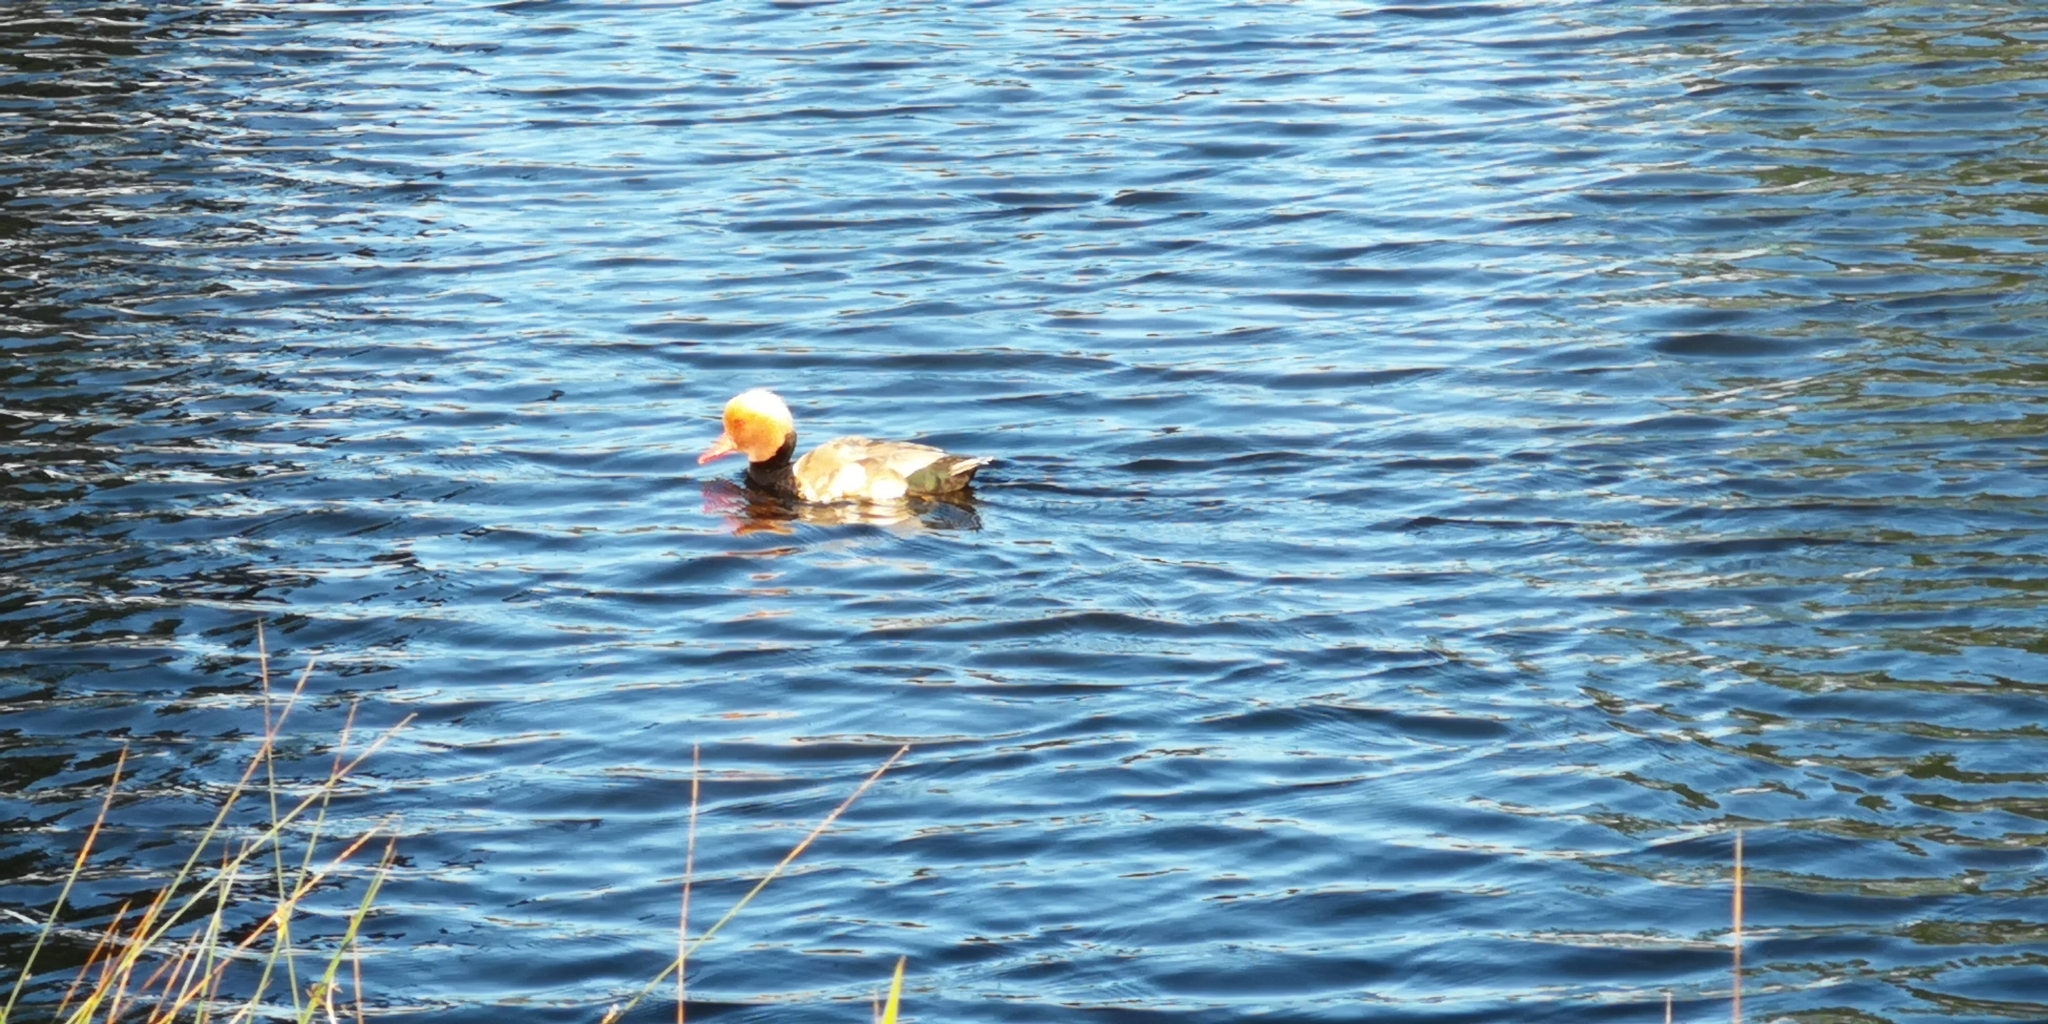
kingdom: Animalia
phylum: Chordata
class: Aves
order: Anseriformes
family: Anatidae
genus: Netta
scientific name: Netta rufina
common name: Red-crested pochard
